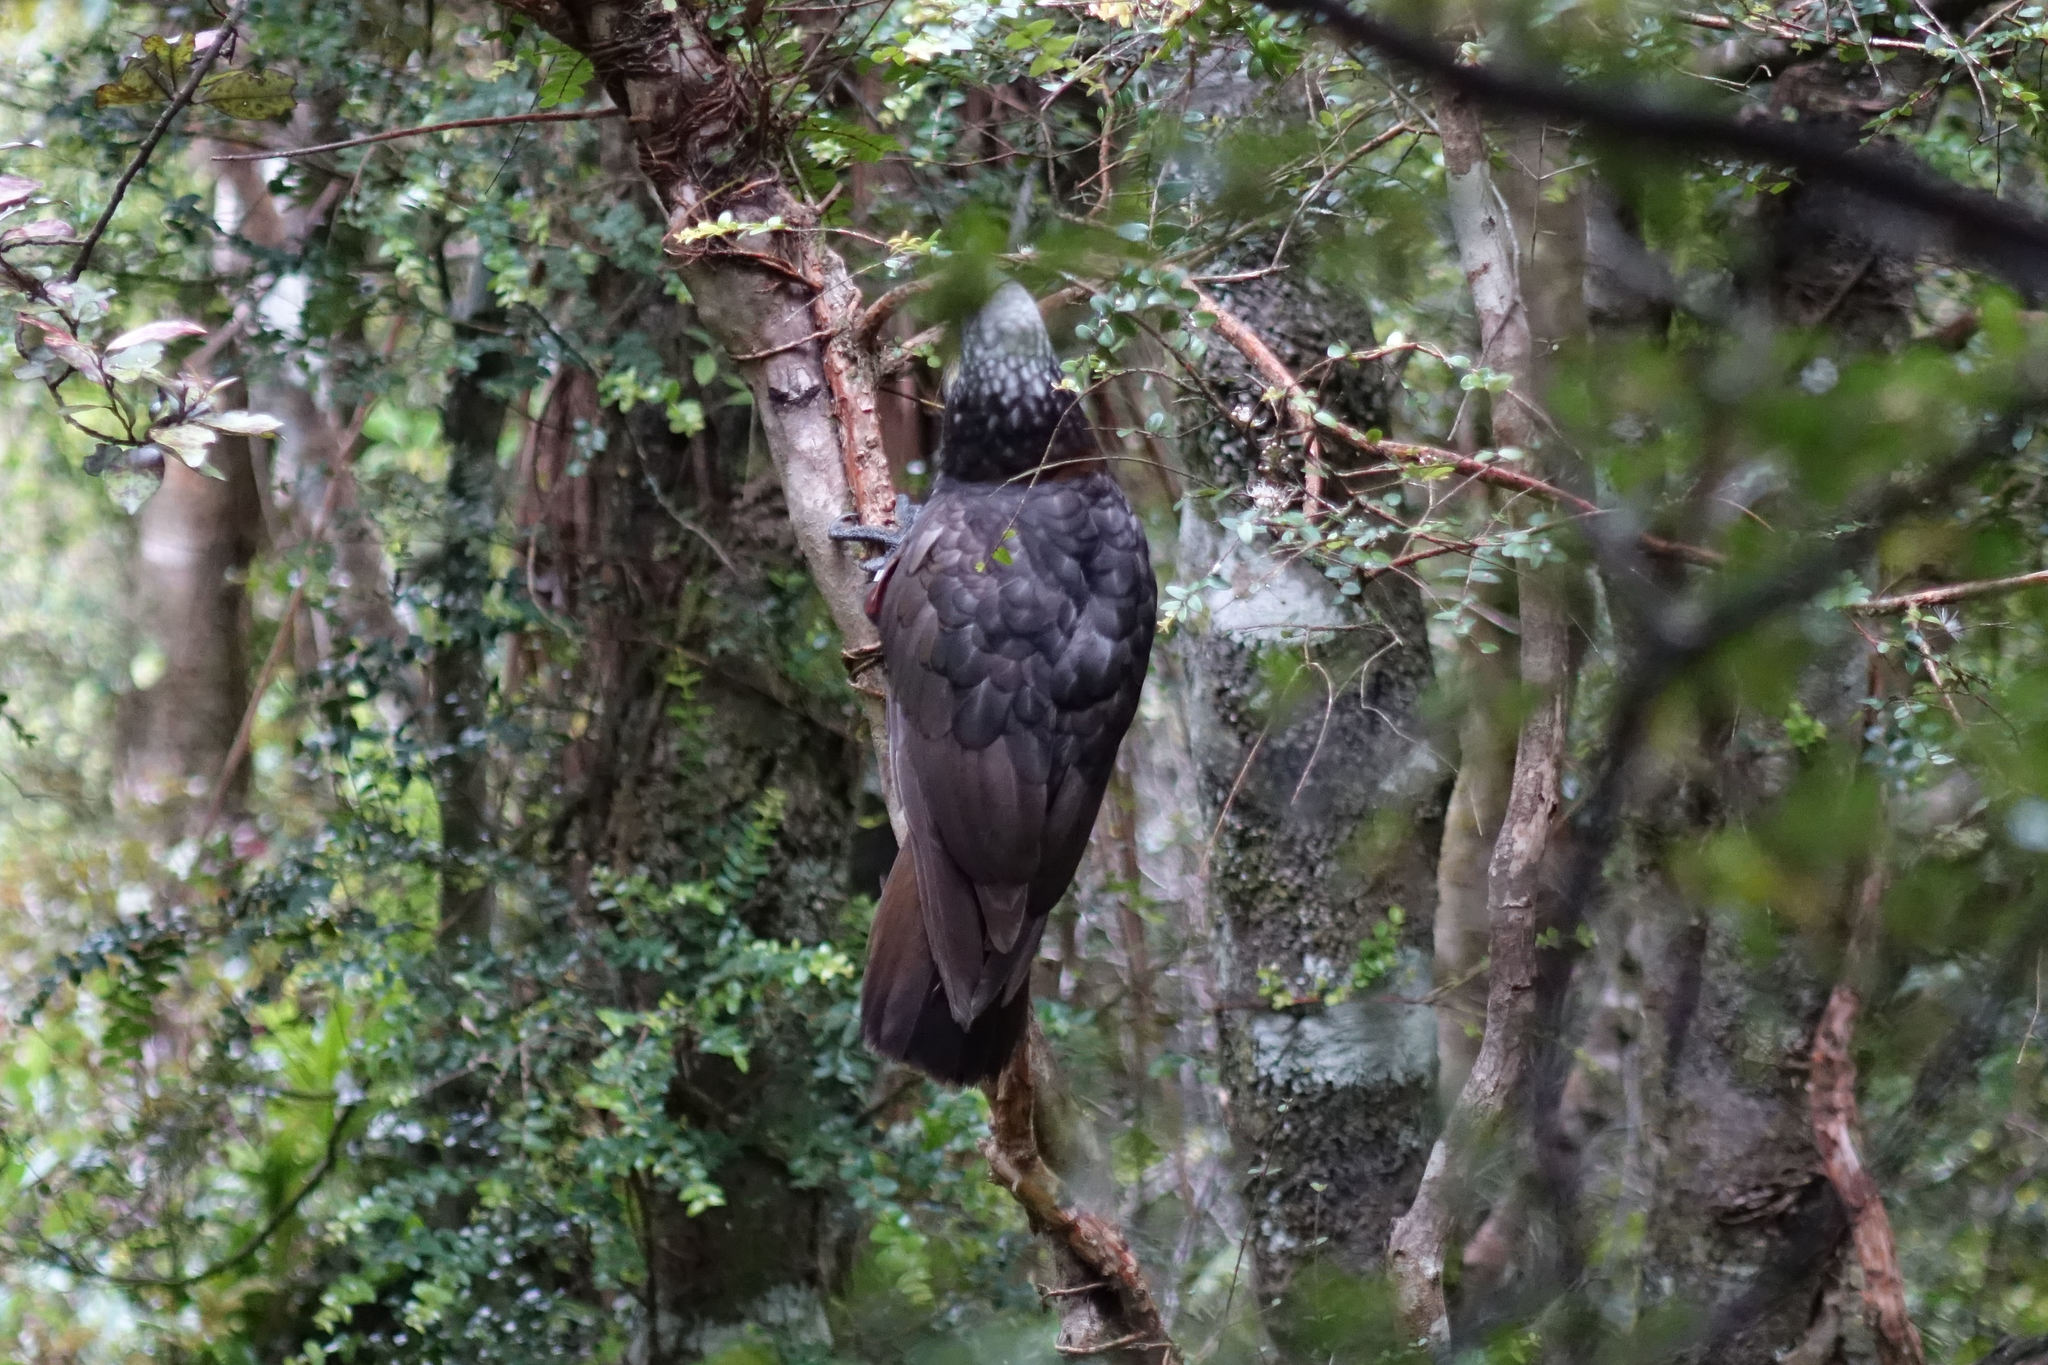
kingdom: Animalia
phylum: Chordata
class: Aves
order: Psittaciformes
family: Psittacidae
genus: Nestor
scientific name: Nestor meridionalis
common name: New zealand kaka
